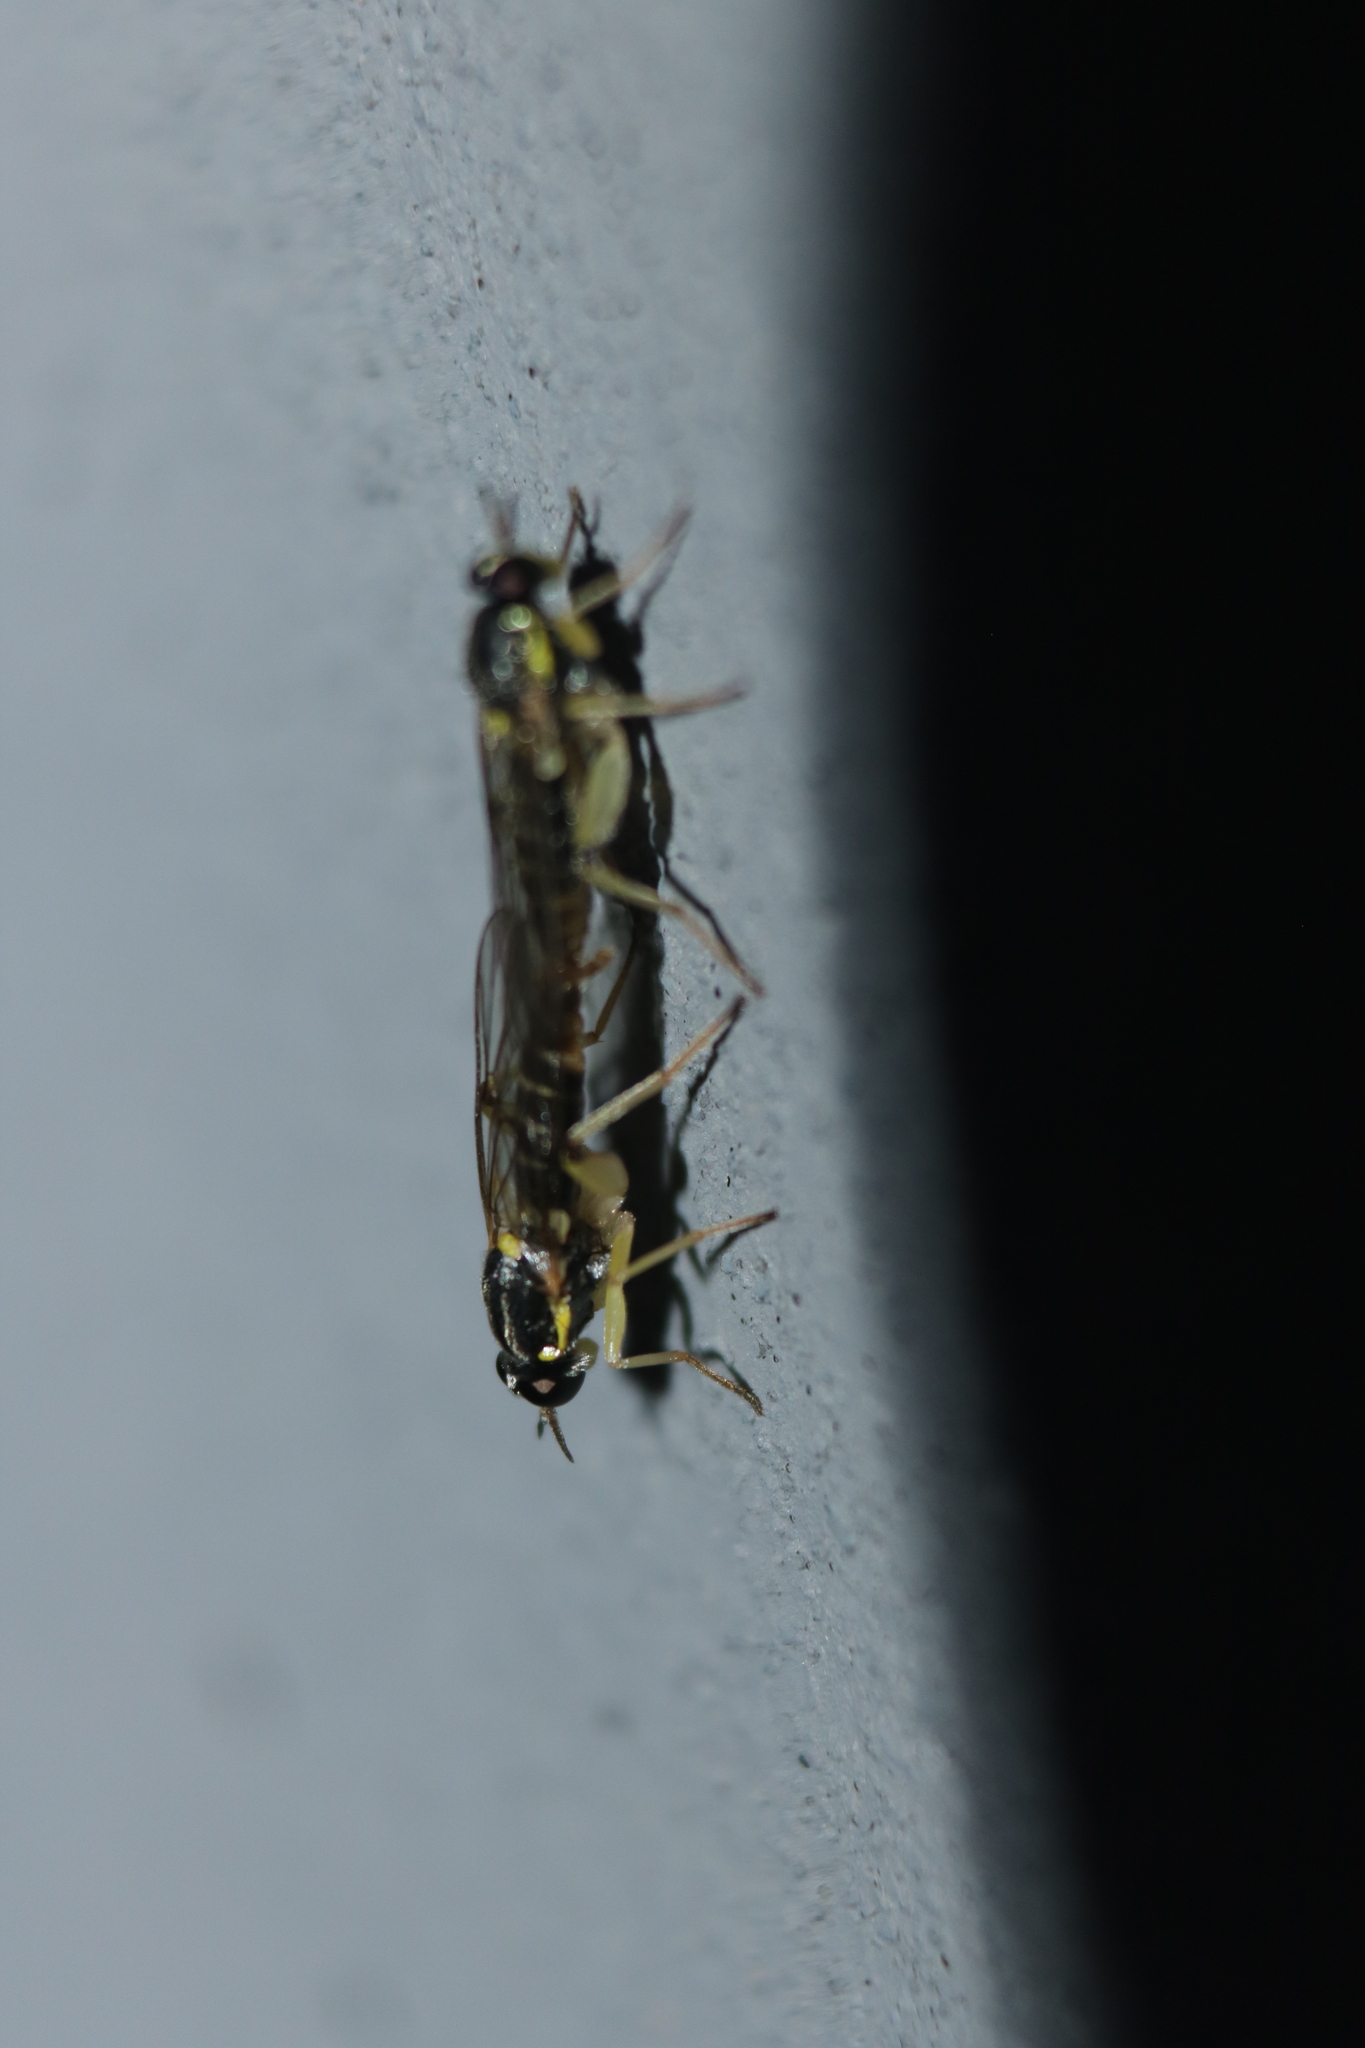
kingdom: Animalia
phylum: Arthropoda
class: Insecta
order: Diptera
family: Xylomyidae
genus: Solva
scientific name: Solva pallipes
